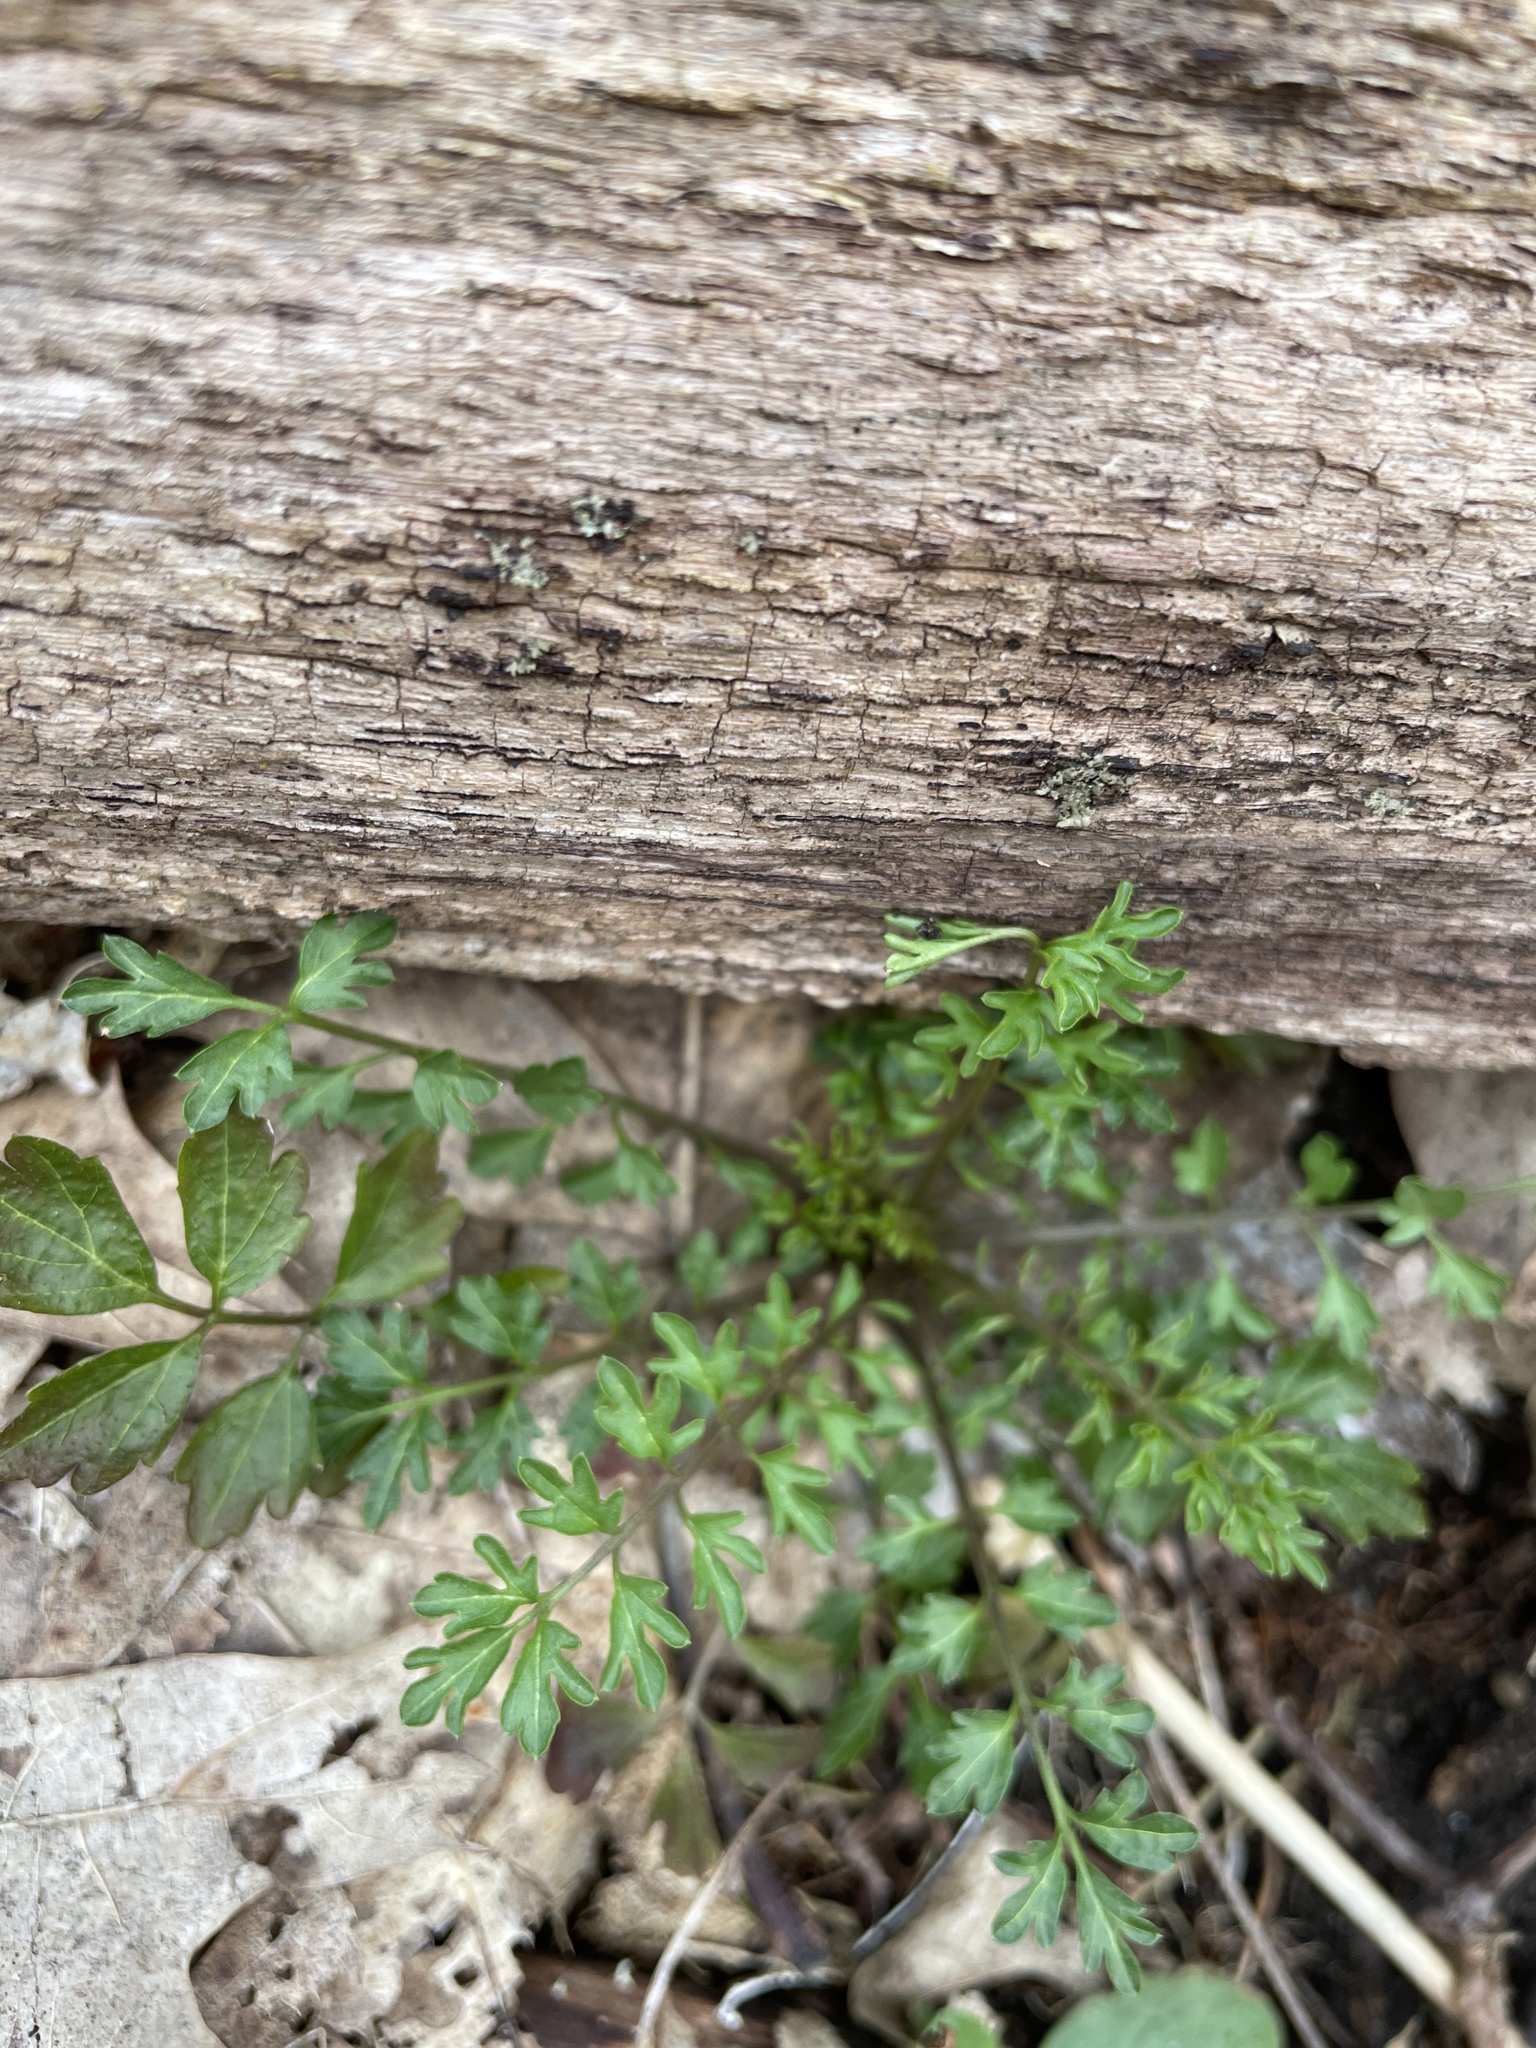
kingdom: Plantae
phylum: Tracheophyta
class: Magnoliopsida
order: Brassicales
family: Brassicaceae
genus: Cardamine
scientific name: Cardamine impatiens
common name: Narrow-leaved bitter-cress
